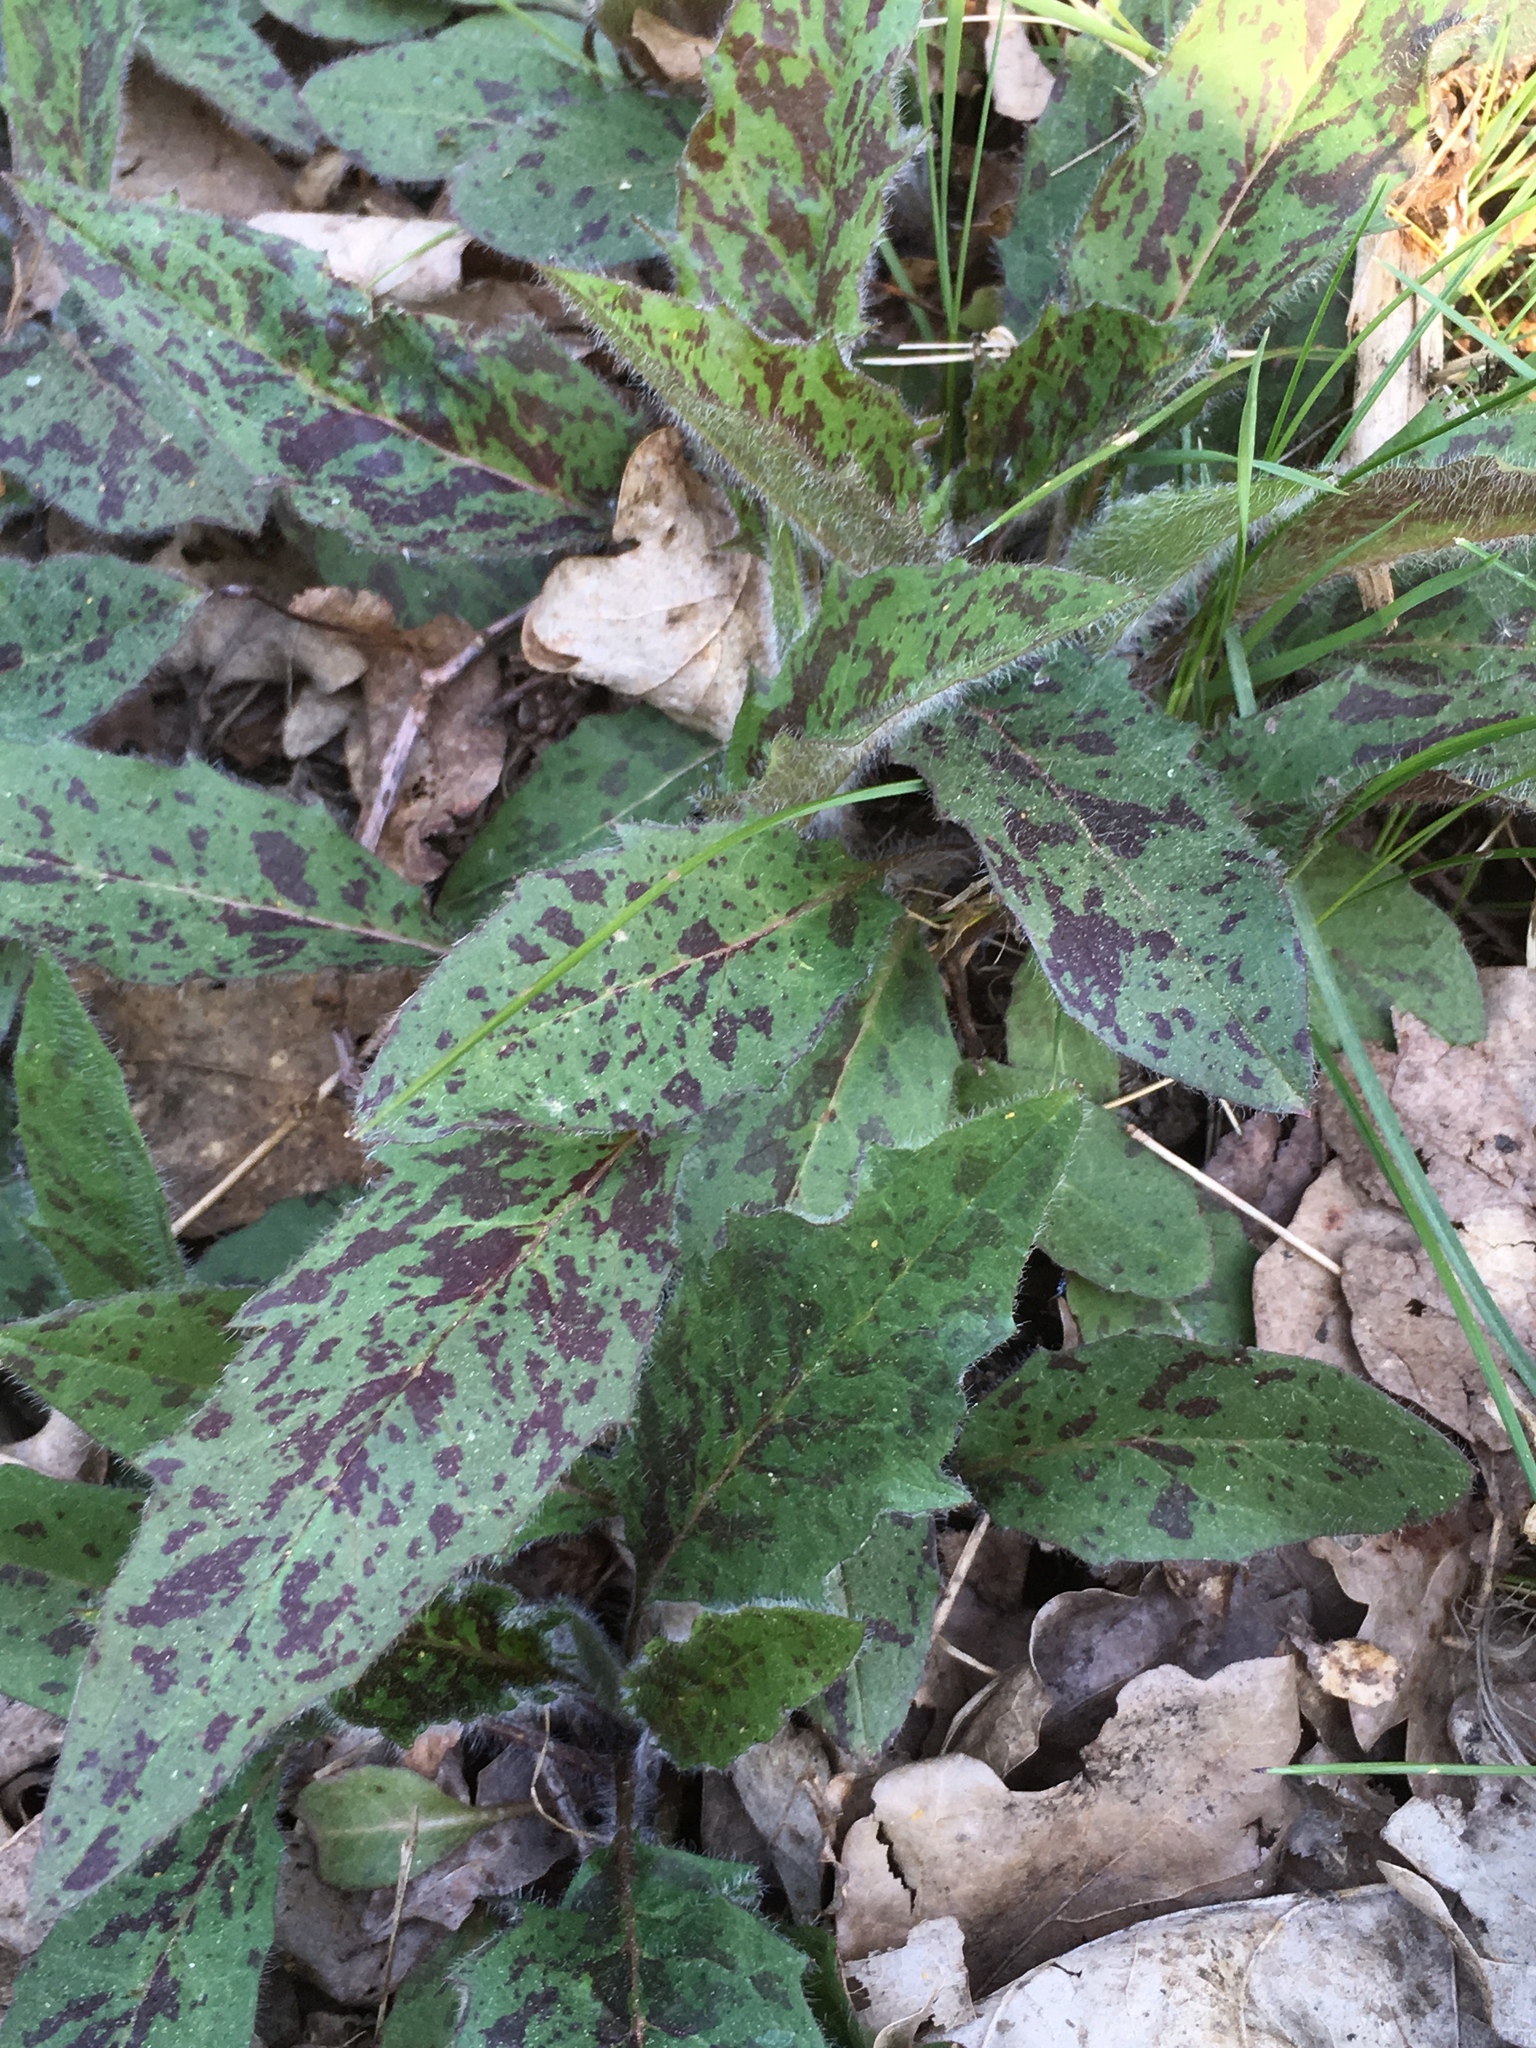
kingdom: Plantae
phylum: Tracheophyta
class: Magnoliopsida
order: Asterales
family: Asteraceae
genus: Hieracium
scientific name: Hieracium maculatum
